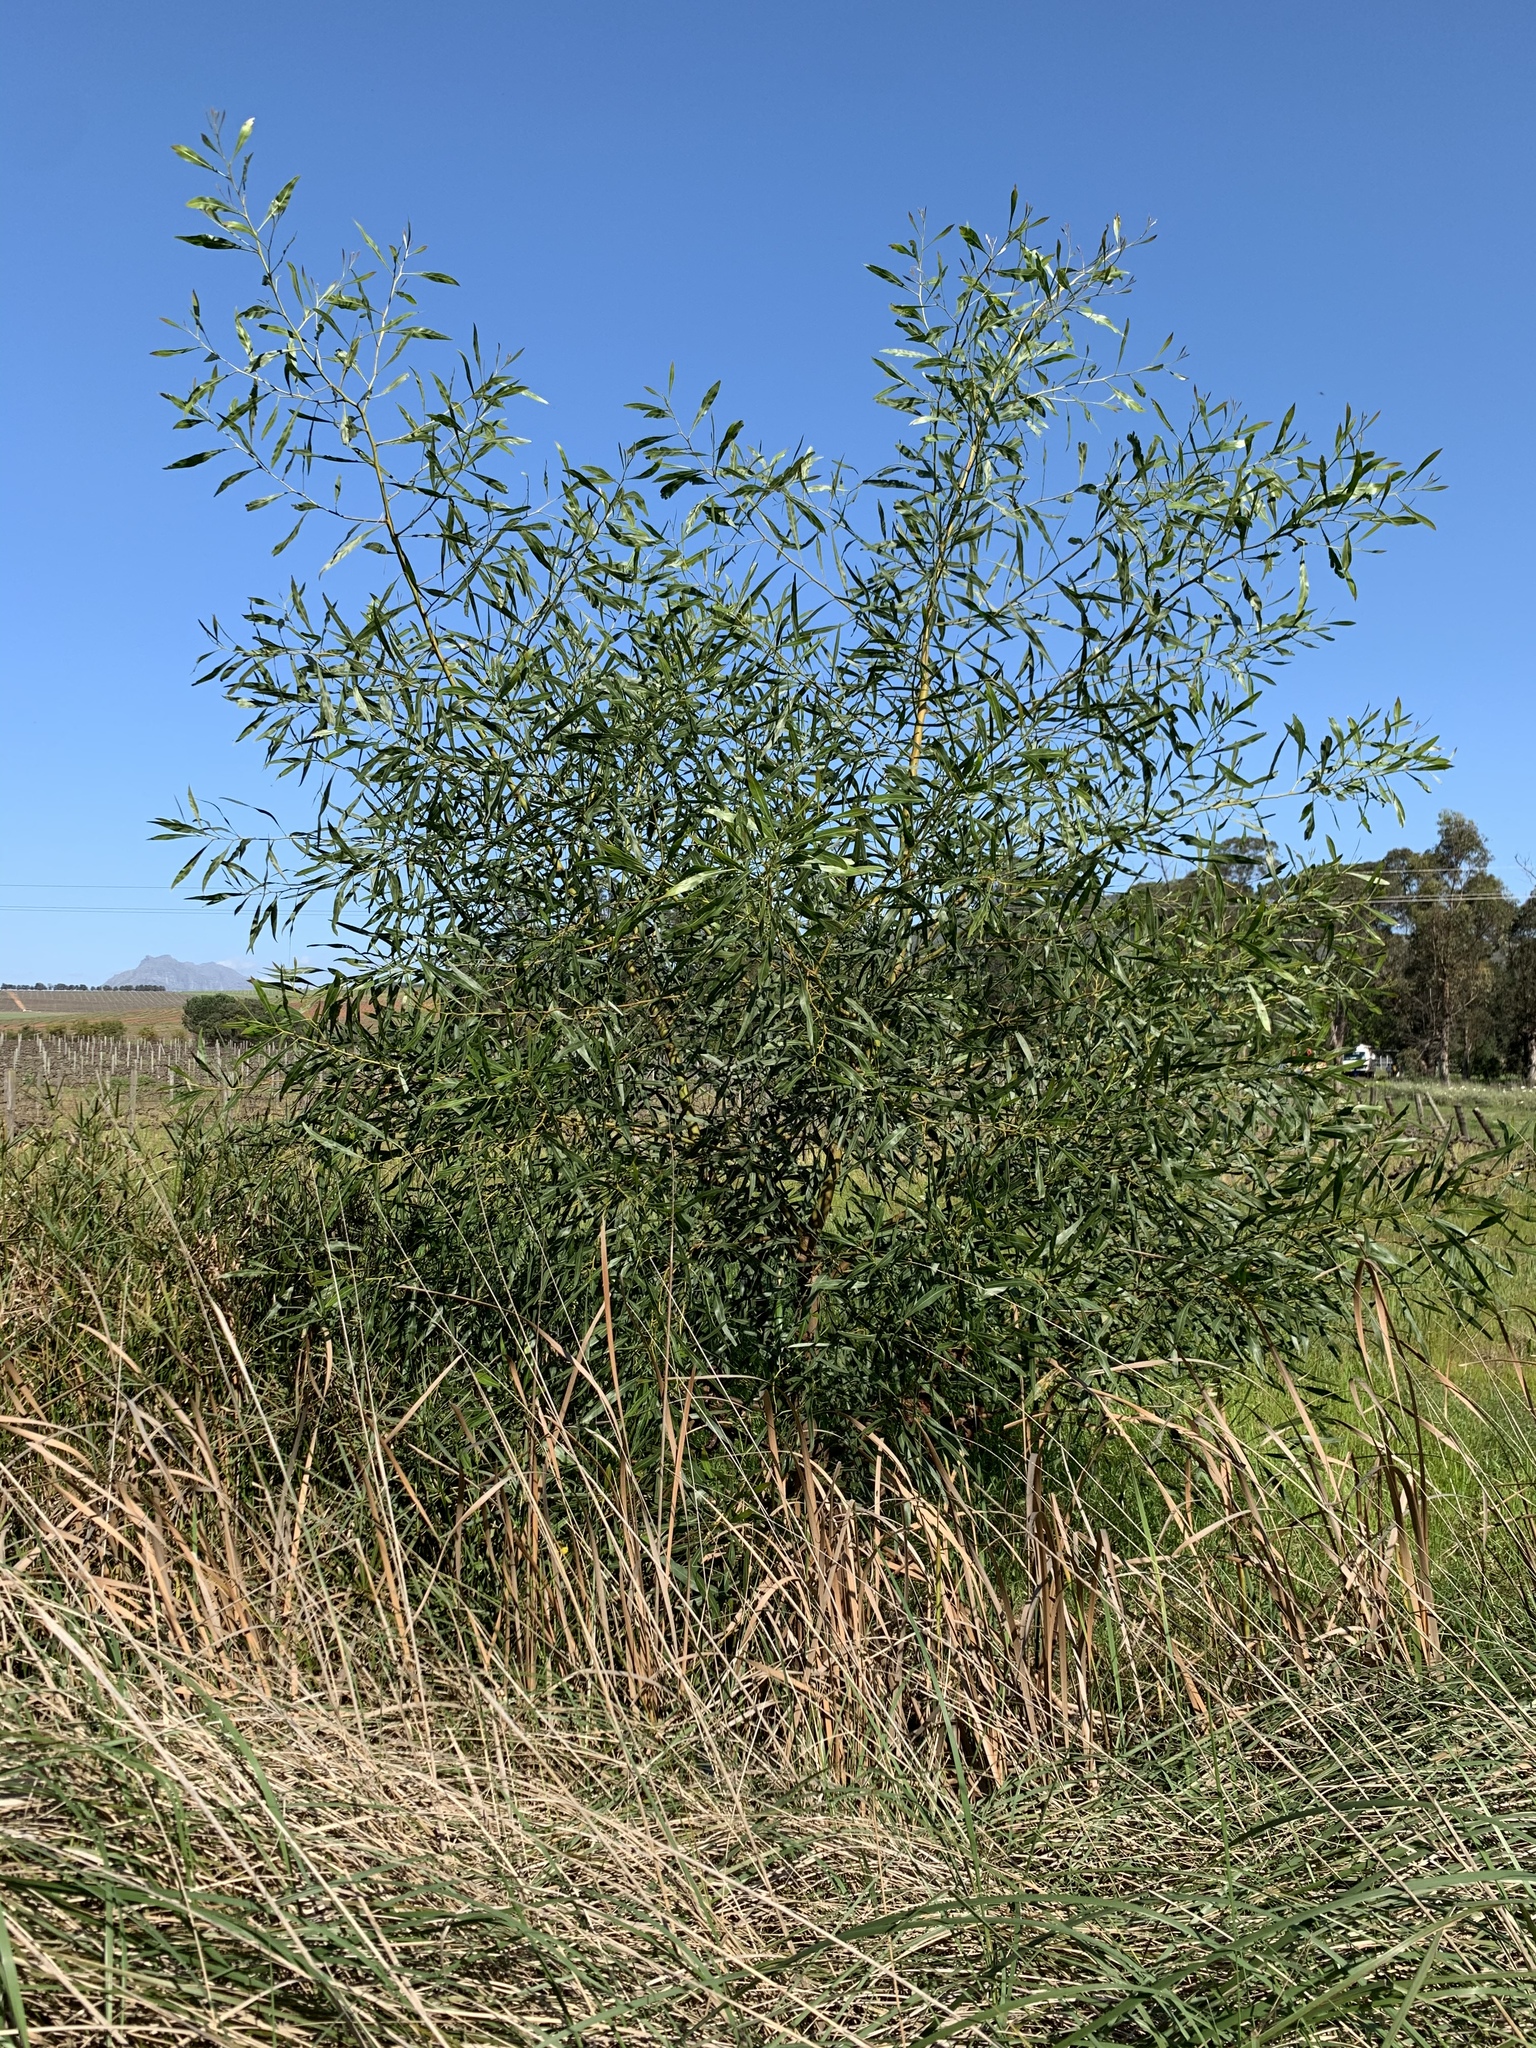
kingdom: Plantae
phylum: Tracheophyta
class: Magnoliopsida
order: Fabales
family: Fabaceae
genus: Acacia
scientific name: Acacia saligna
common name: Orange wattle
